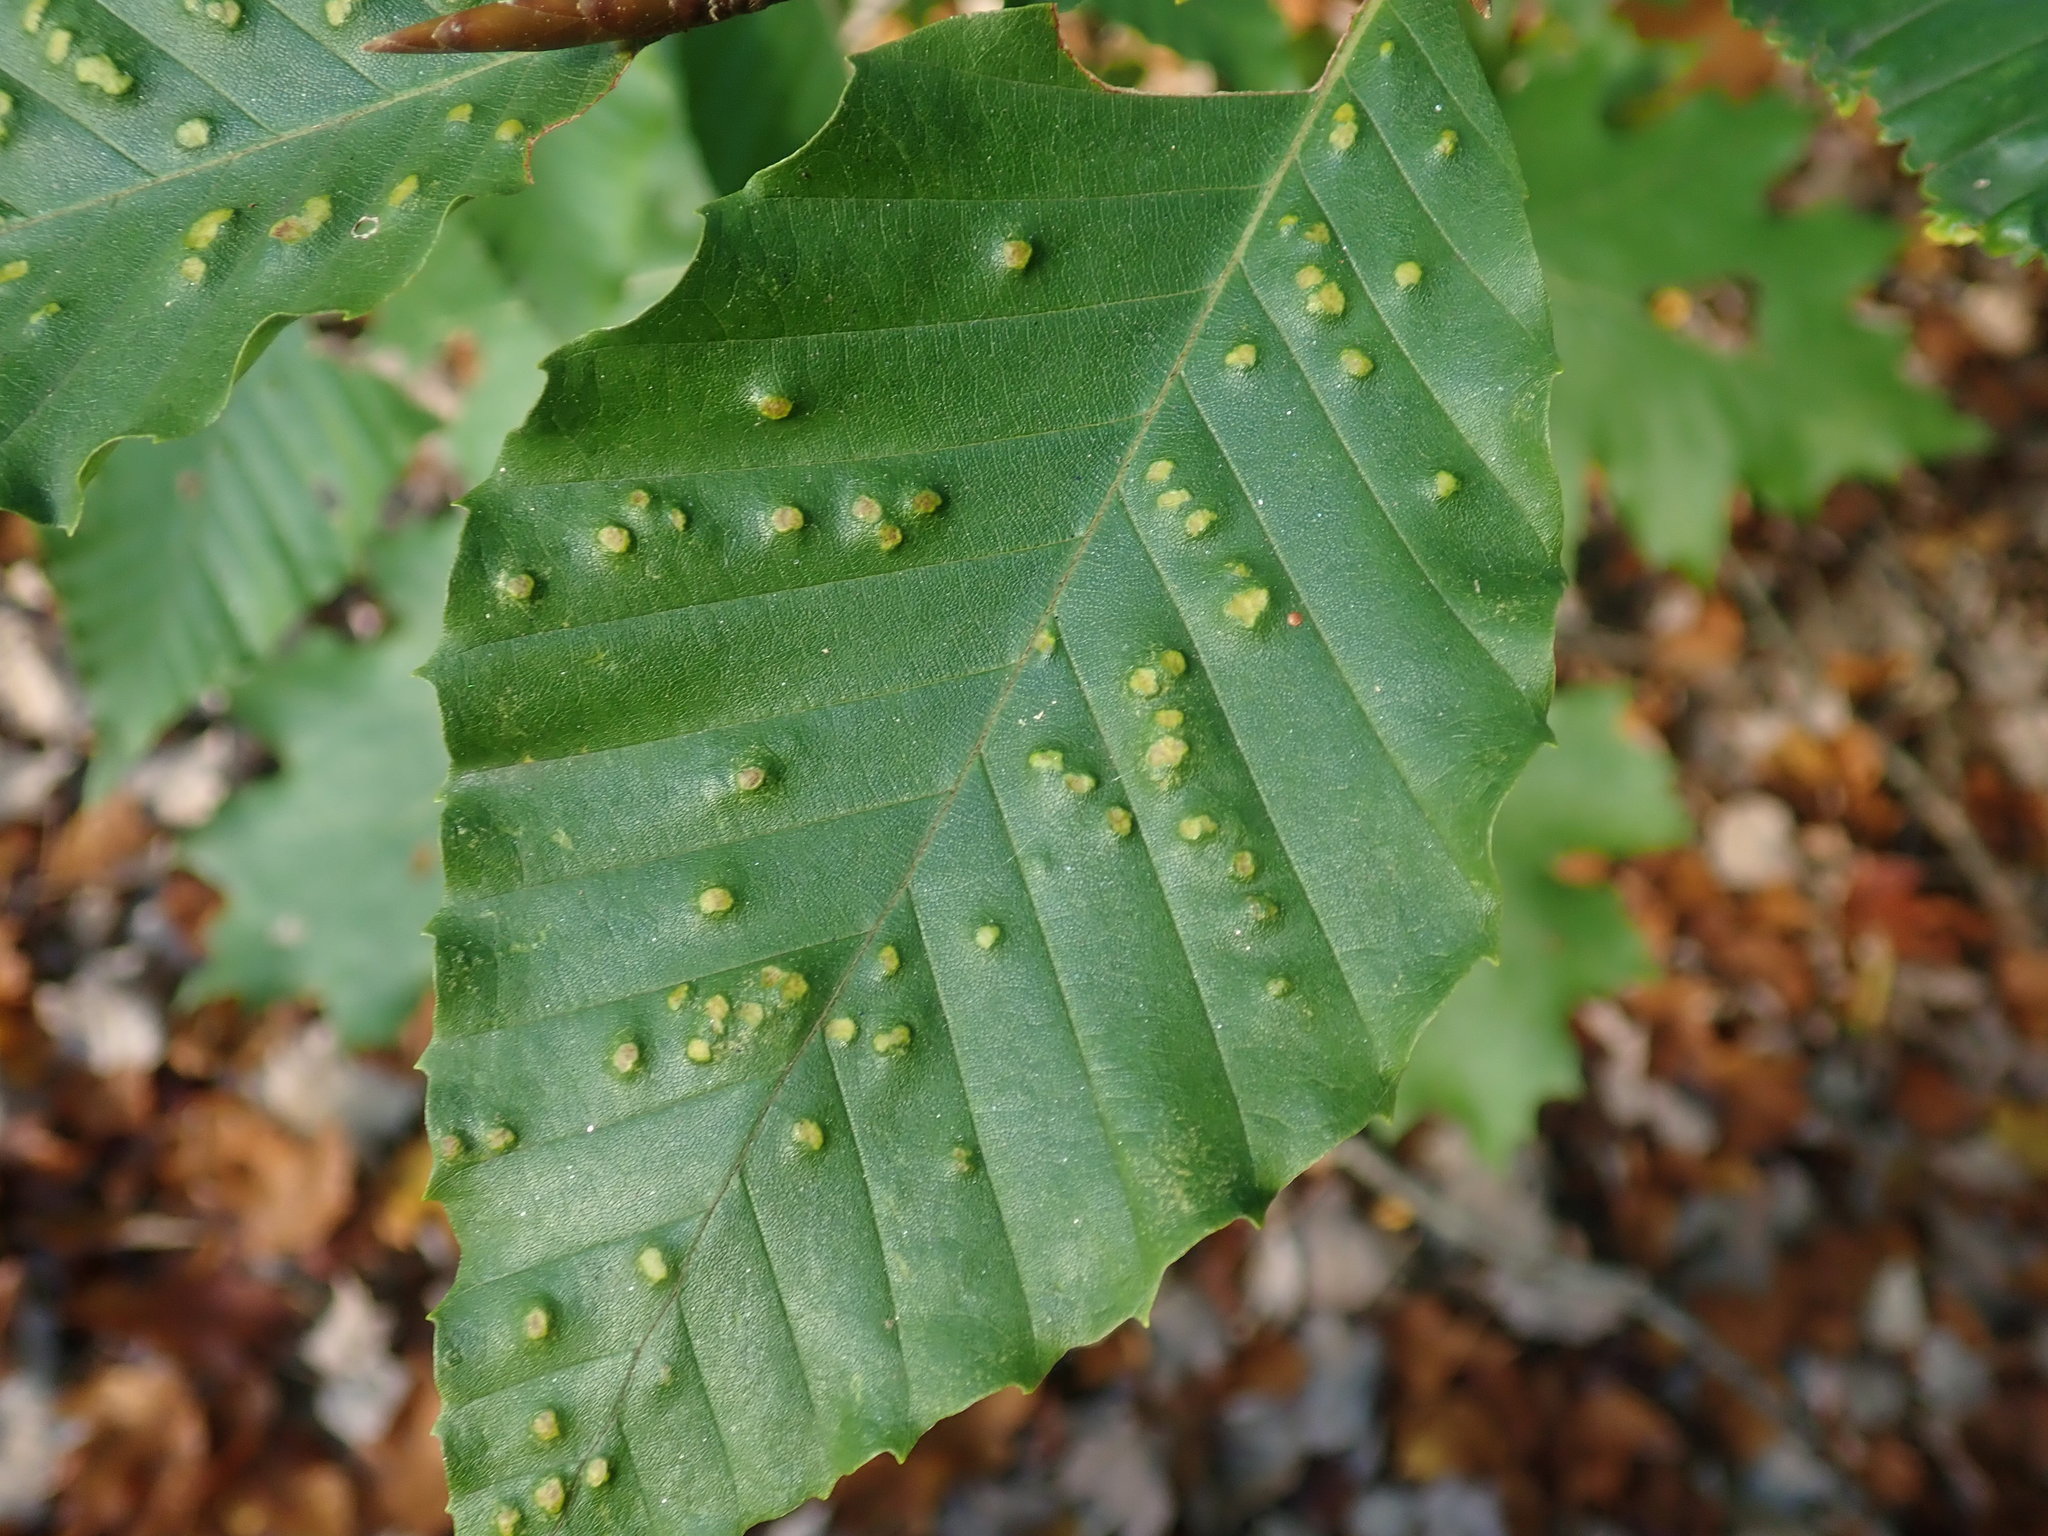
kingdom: Animalia
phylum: Arthropoda
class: Arachnida
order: Trombidiformes
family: Eriophyidae
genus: Acalitus
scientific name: Acalitus
